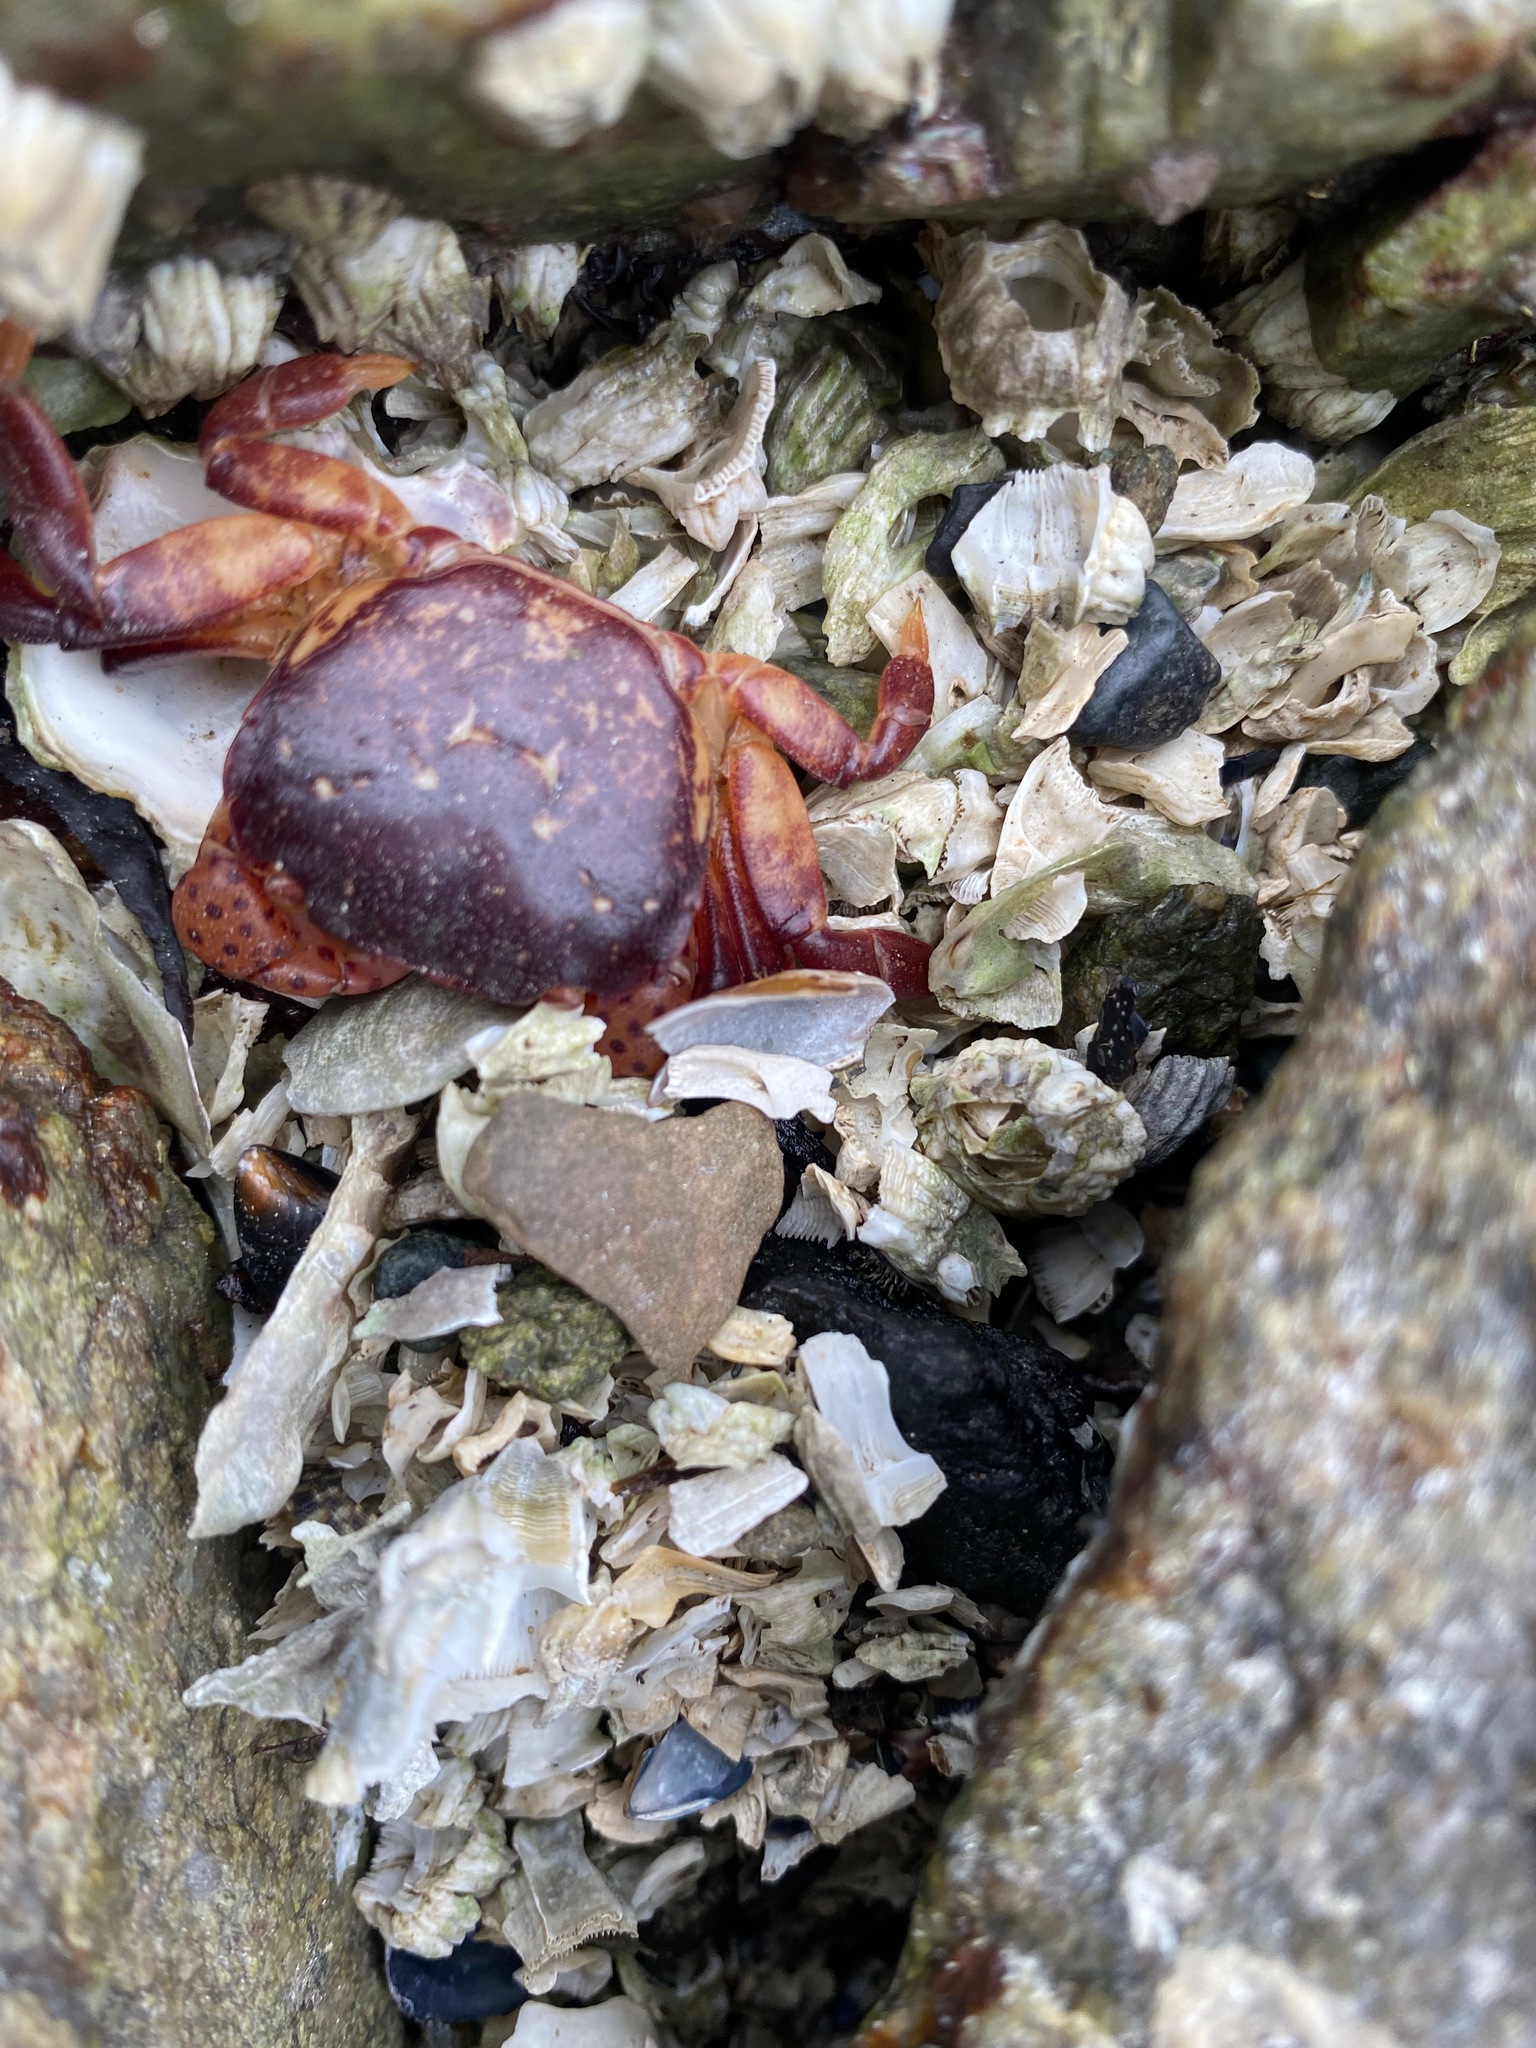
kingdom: Animalia
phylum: Arthropoda
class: Malacostraca
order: Decapoda
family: Varunidae
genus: Hemigrapsus
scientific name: Hemigrapsus nudus
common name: Purple shore crab
